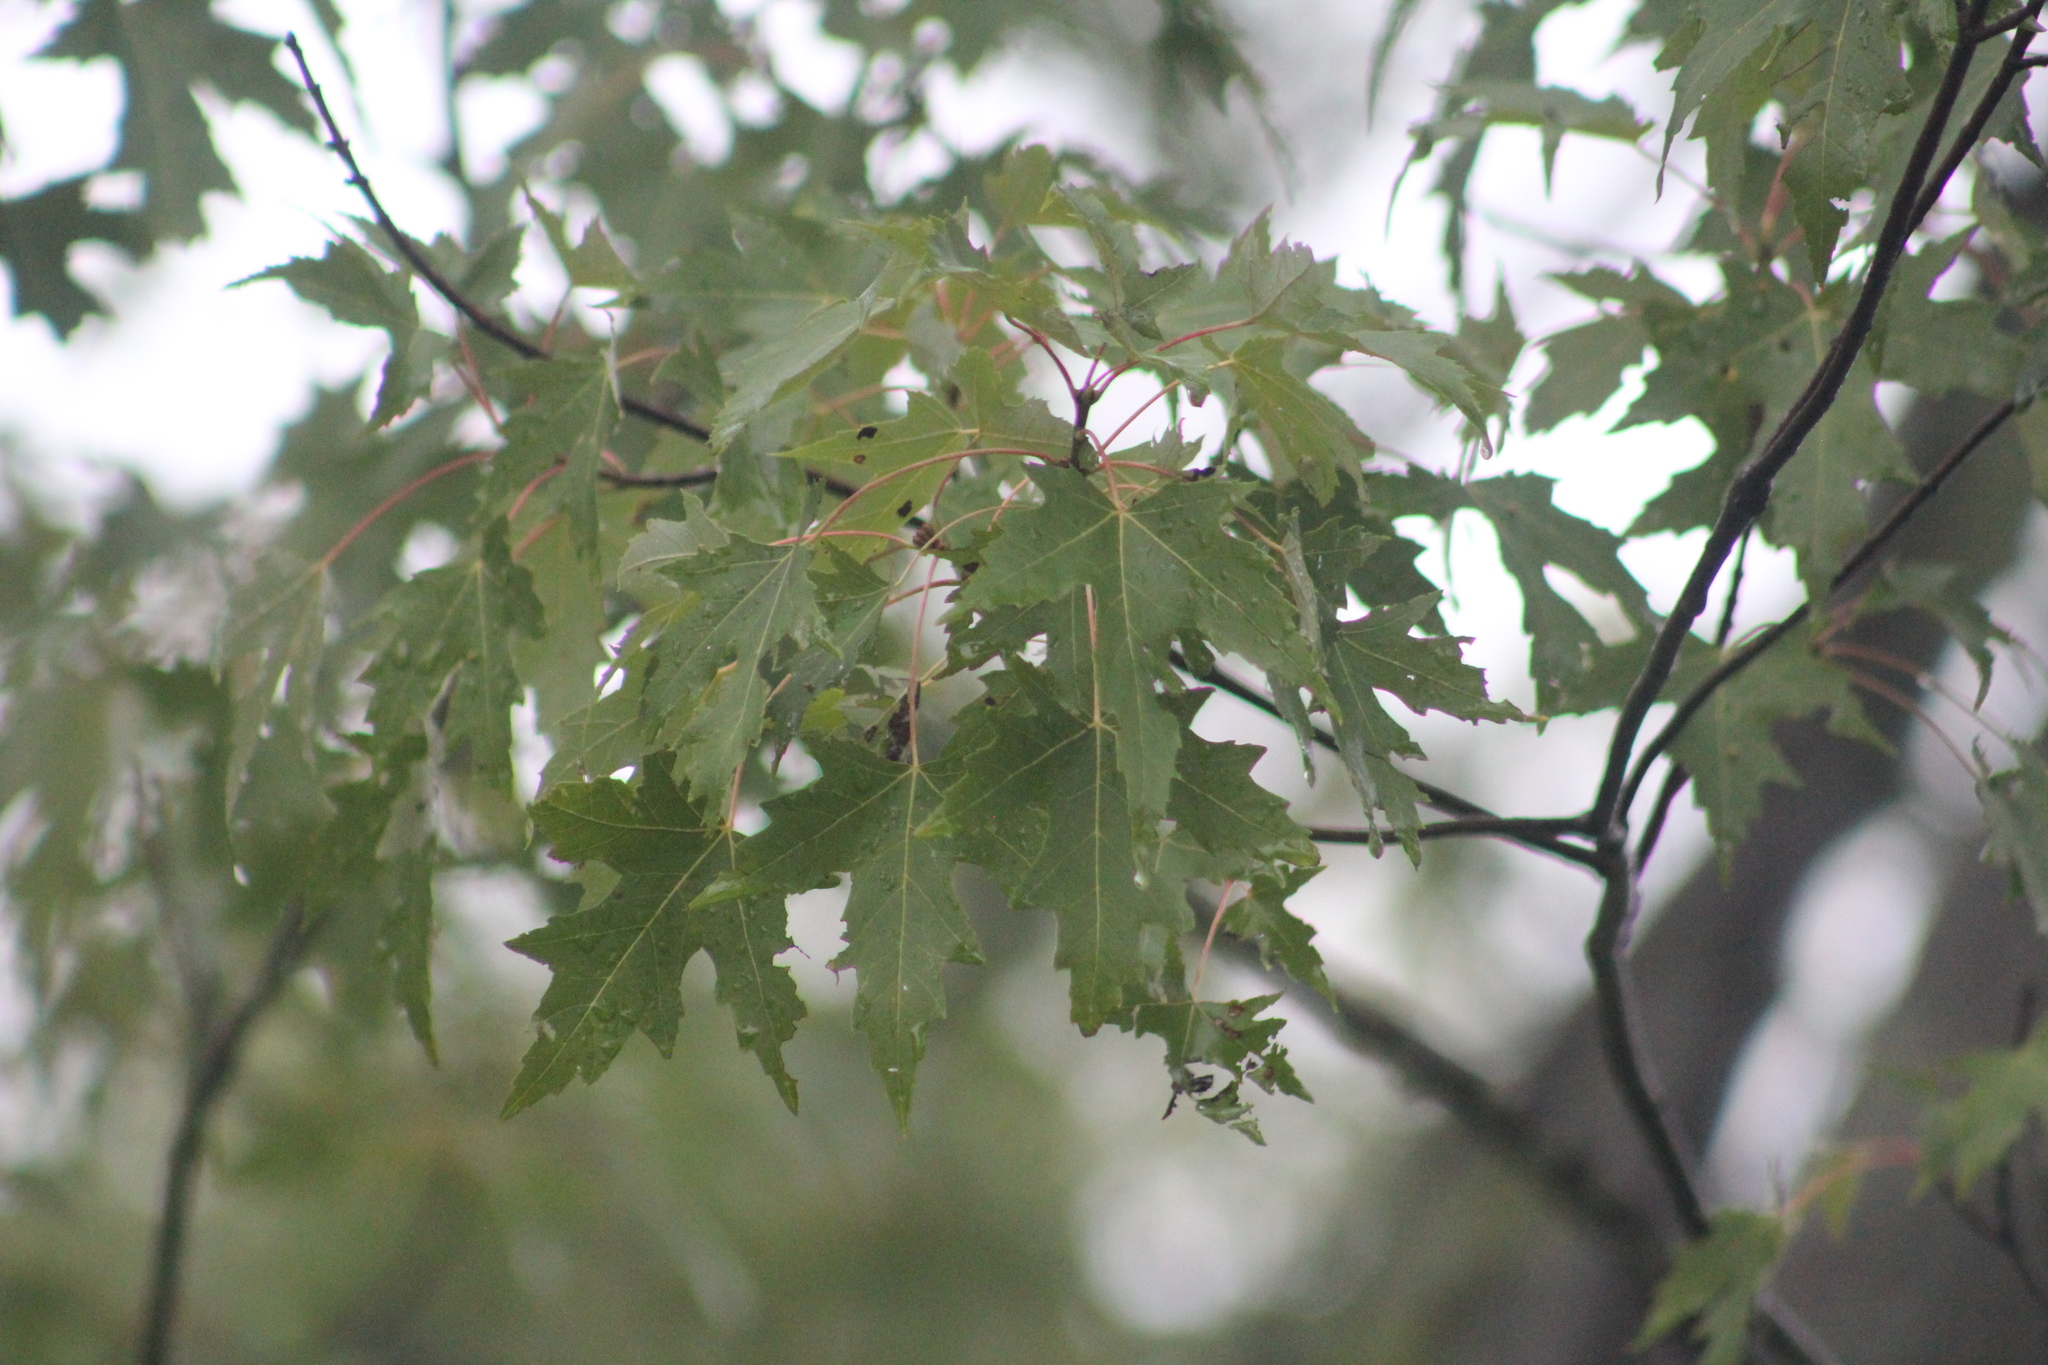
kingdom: Plantae
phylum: Tracheophyta
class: Magnoliopsida
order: Sapindales
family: Sapindaceae
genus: Acer
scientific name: Acer saccharinum
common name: Silver maple
